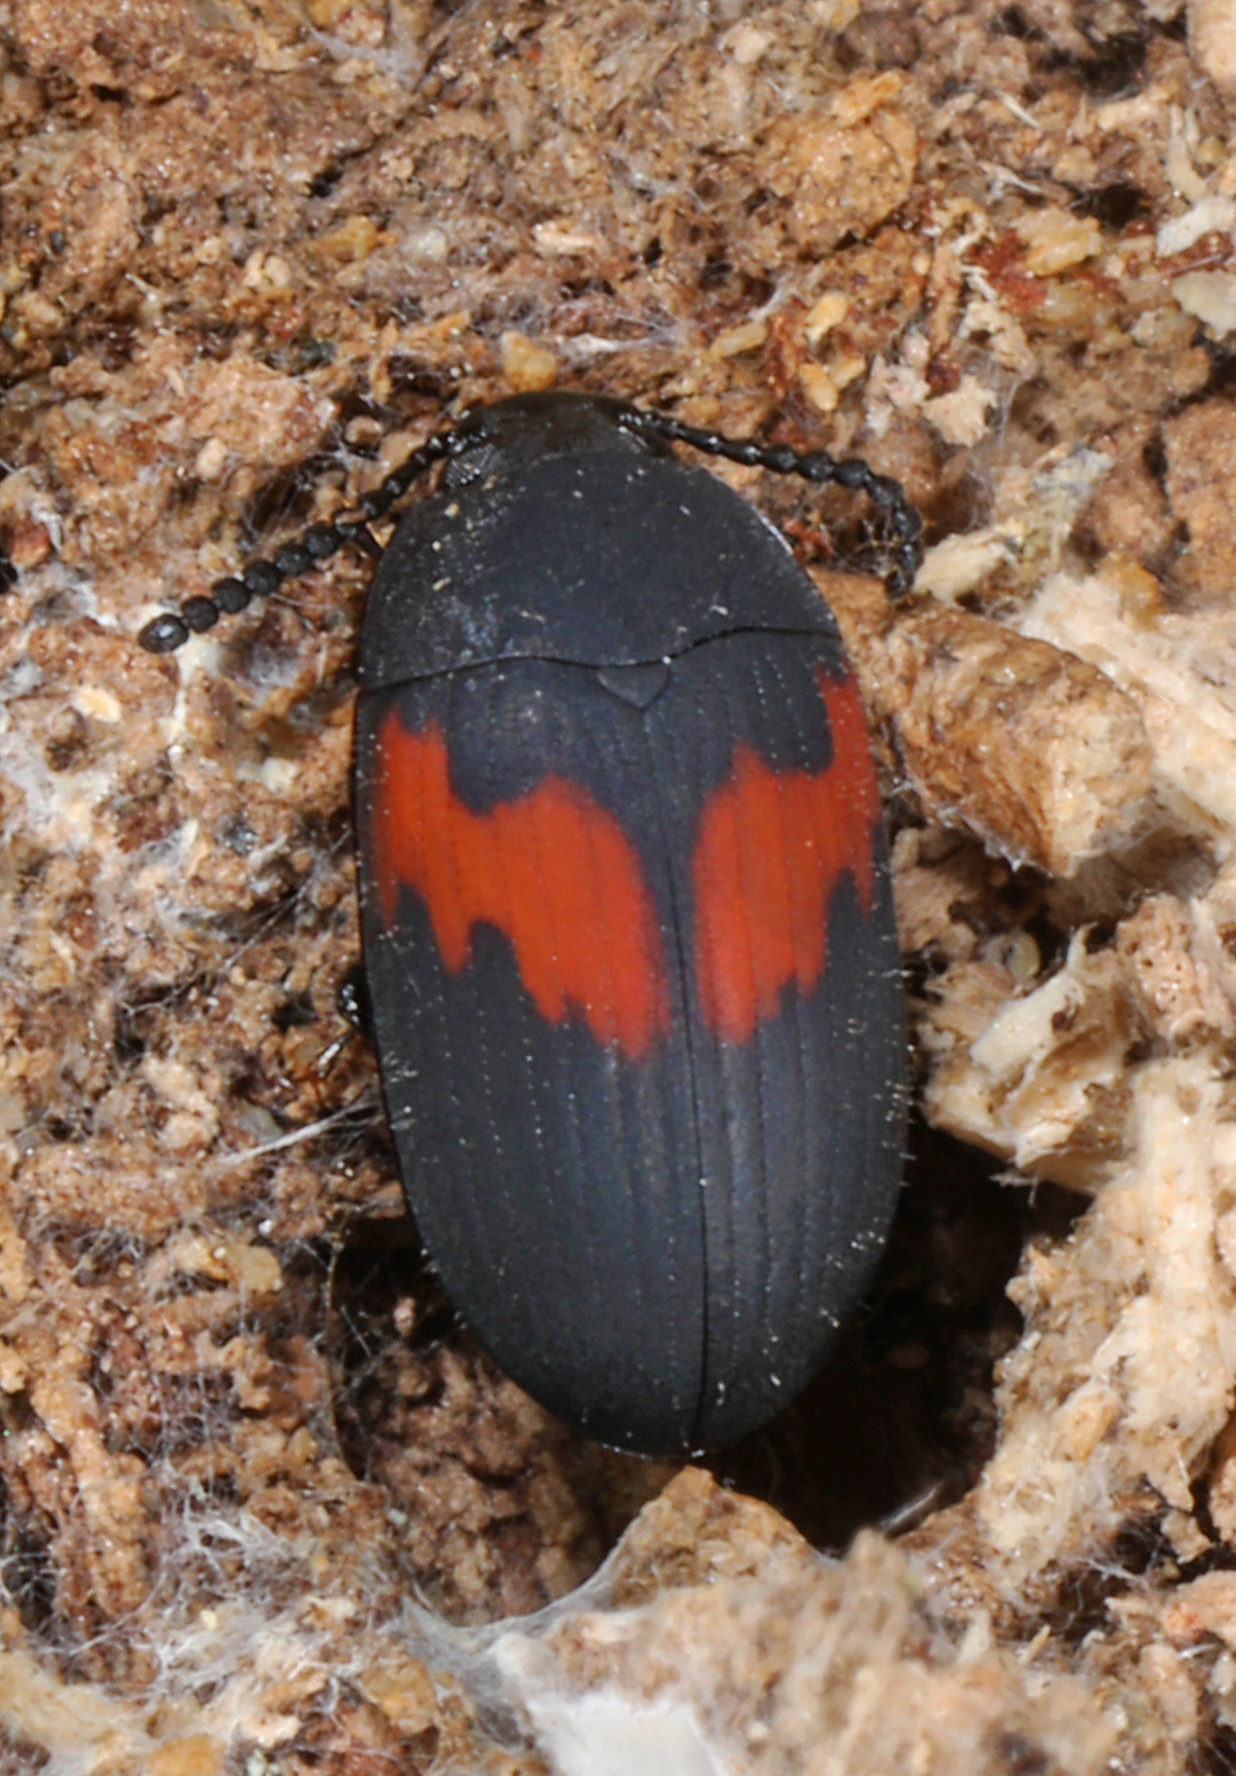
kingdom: Animalia
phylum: Arthropoda
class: Insecta
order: Coleoptera
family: Tenebrionidae
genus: Platydema
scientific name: Platydema elliptica
